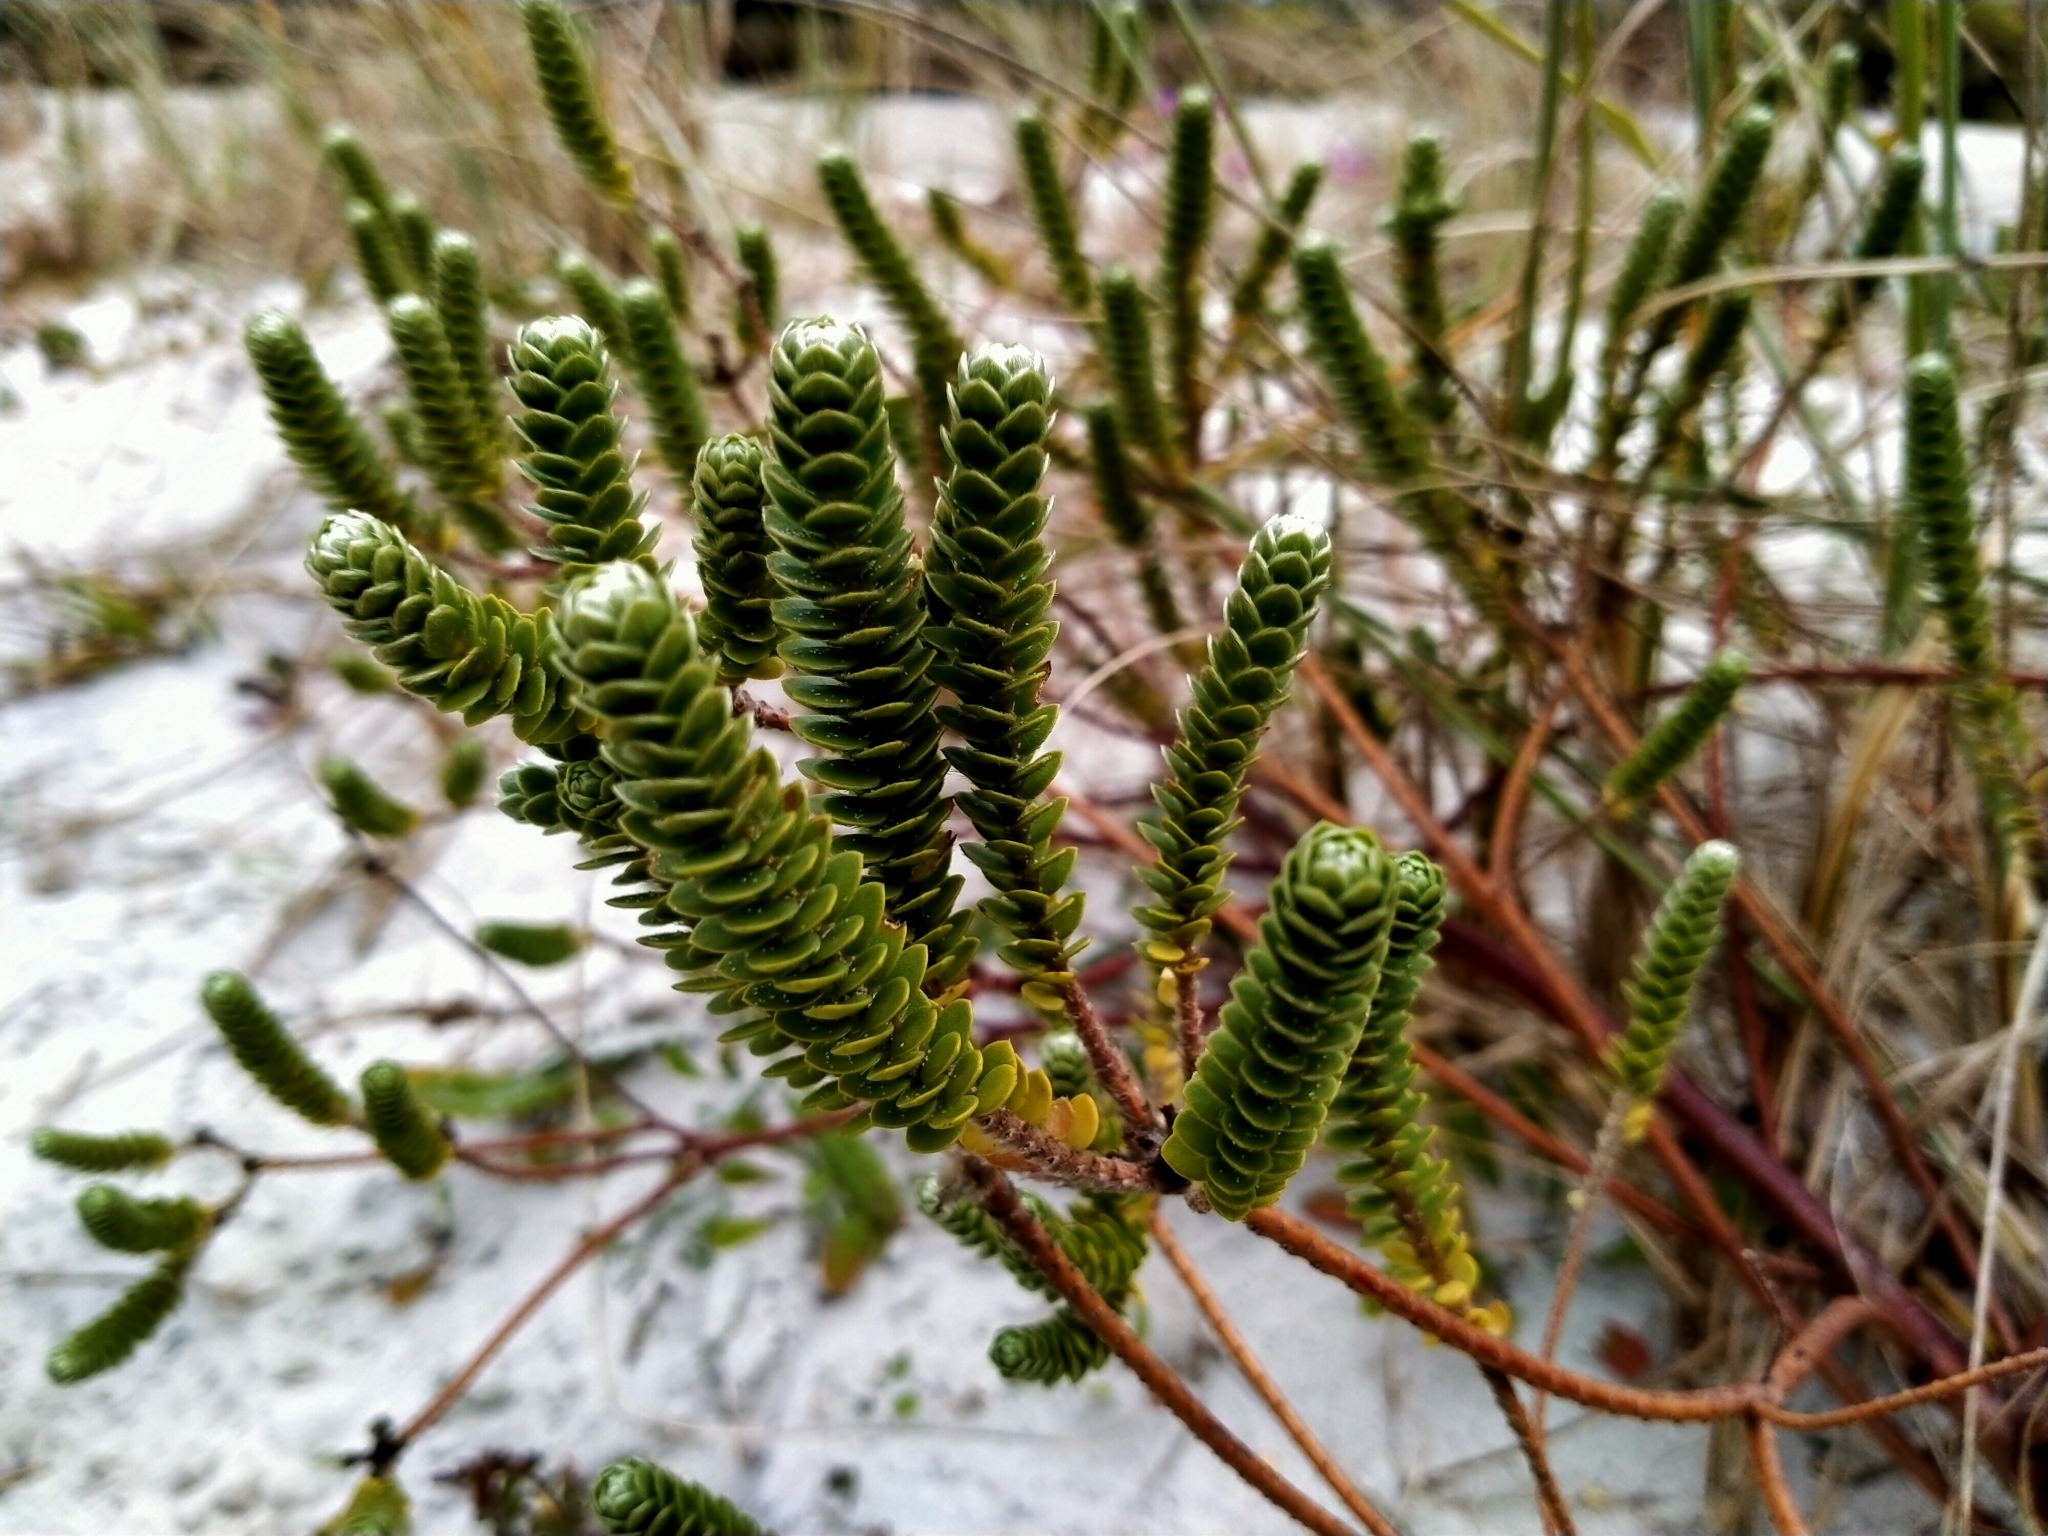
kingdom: Plantae
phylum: Tracheophyta
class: Magnoliopsida
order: Malvales
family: Thymelaeaceae
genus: Pimelea
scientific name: Pimelea villosa
